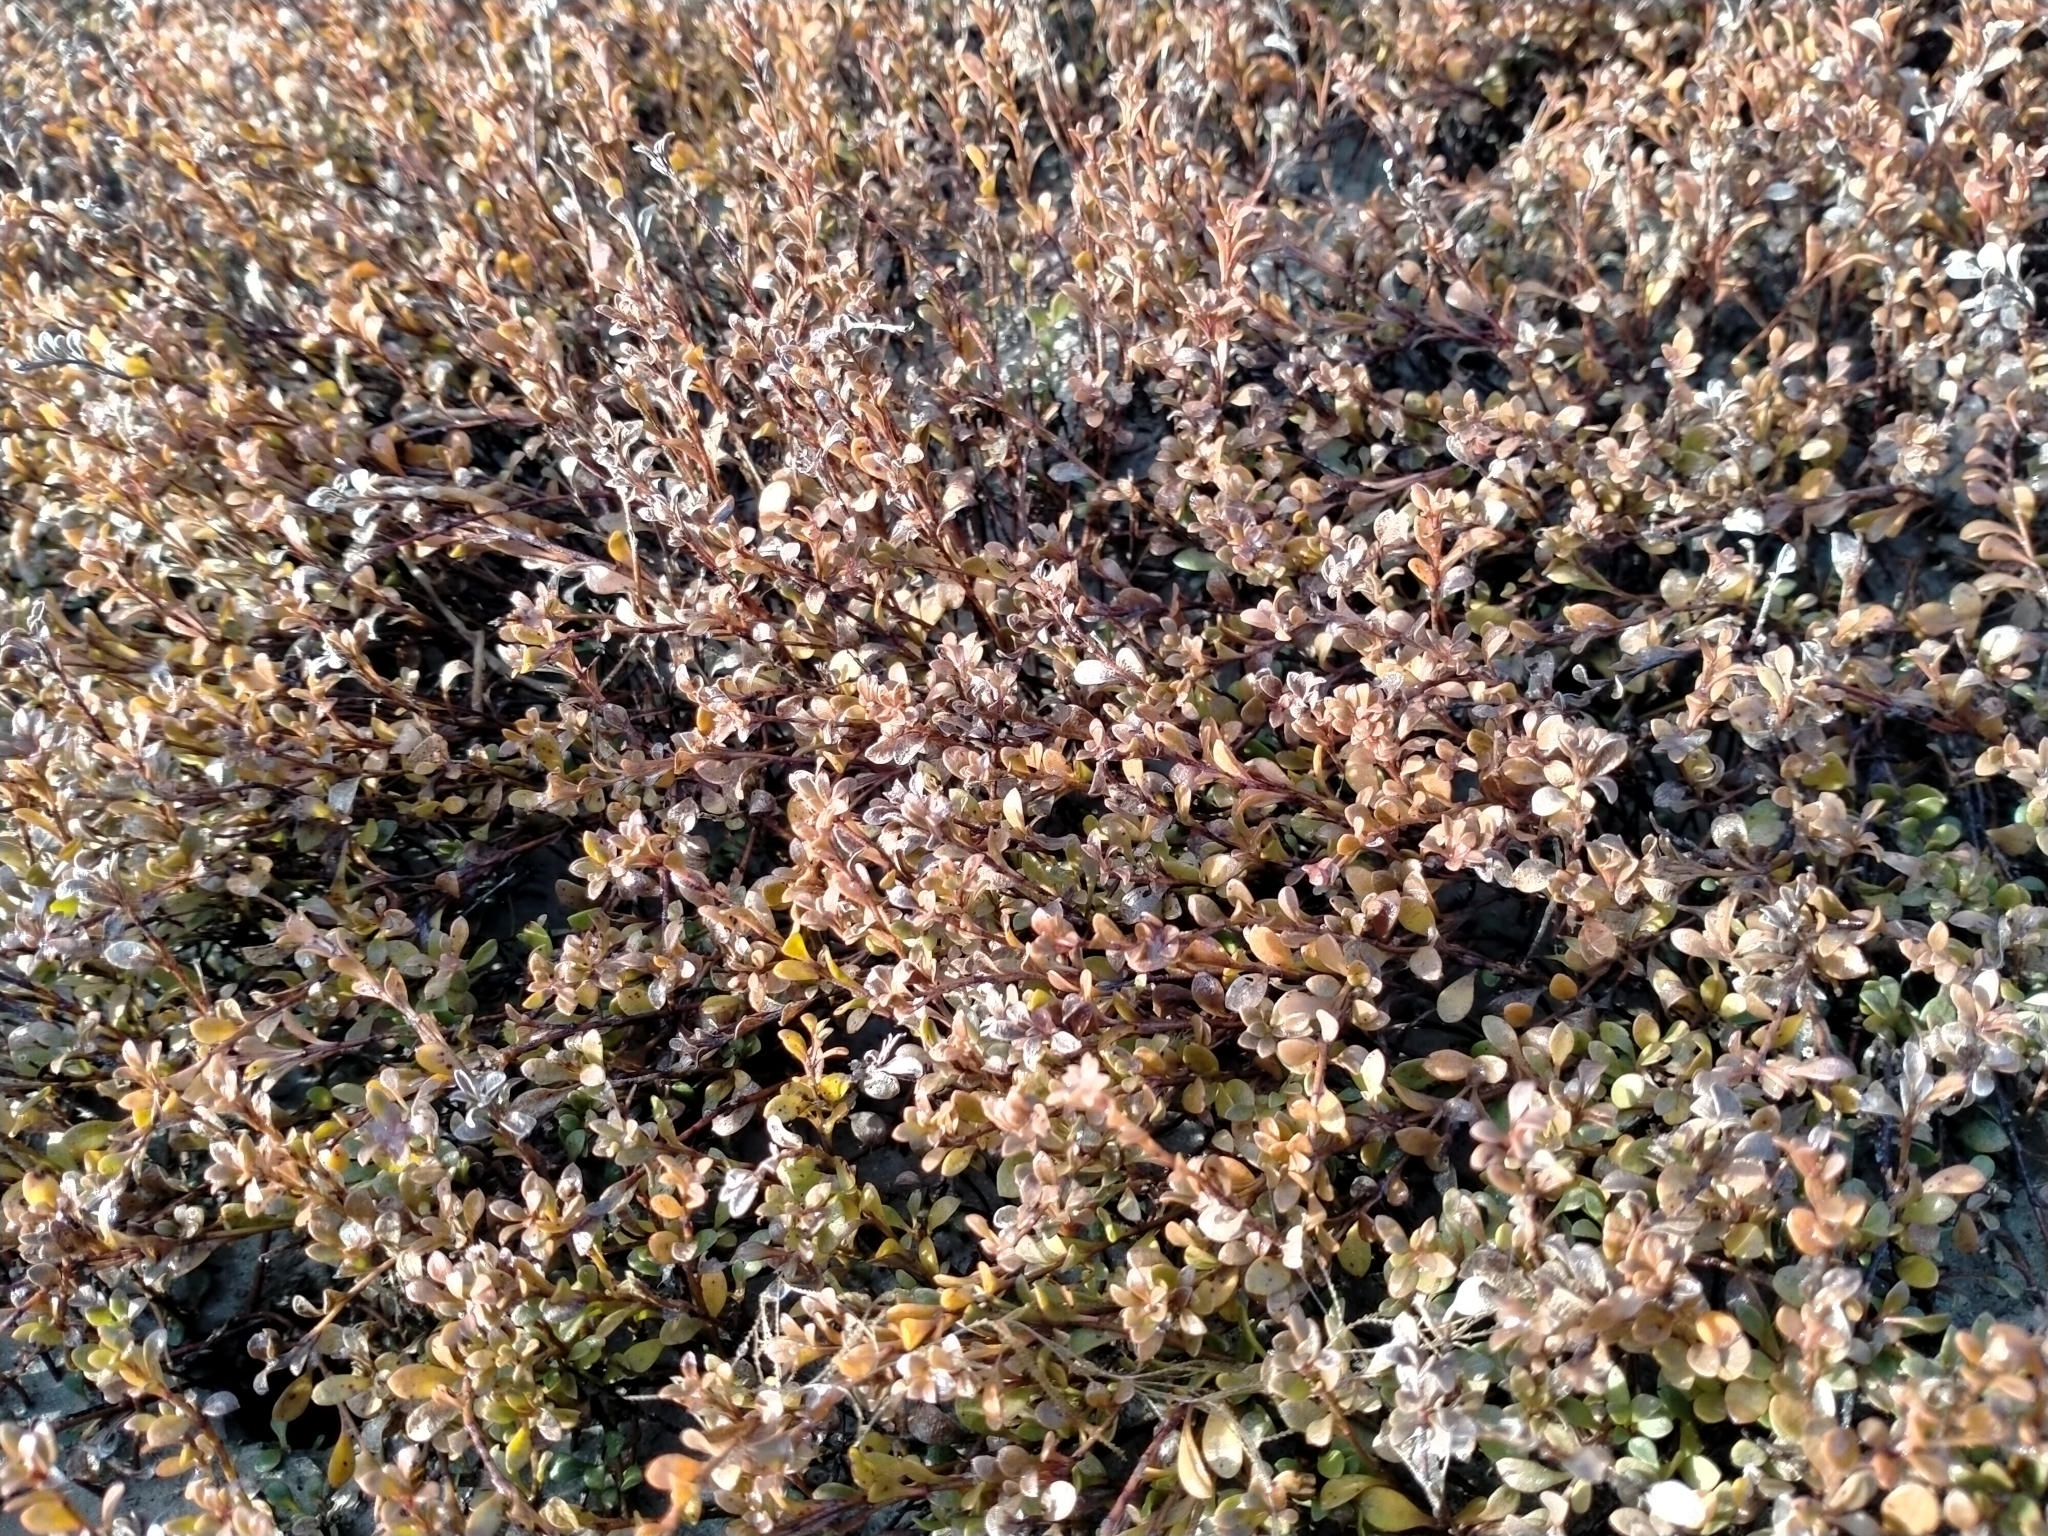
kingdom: Plantae
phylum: Tracheophyta
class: Magnoliopsida
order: Ericales
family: Primulaceae
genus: Samolus
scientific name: Samolus repens
